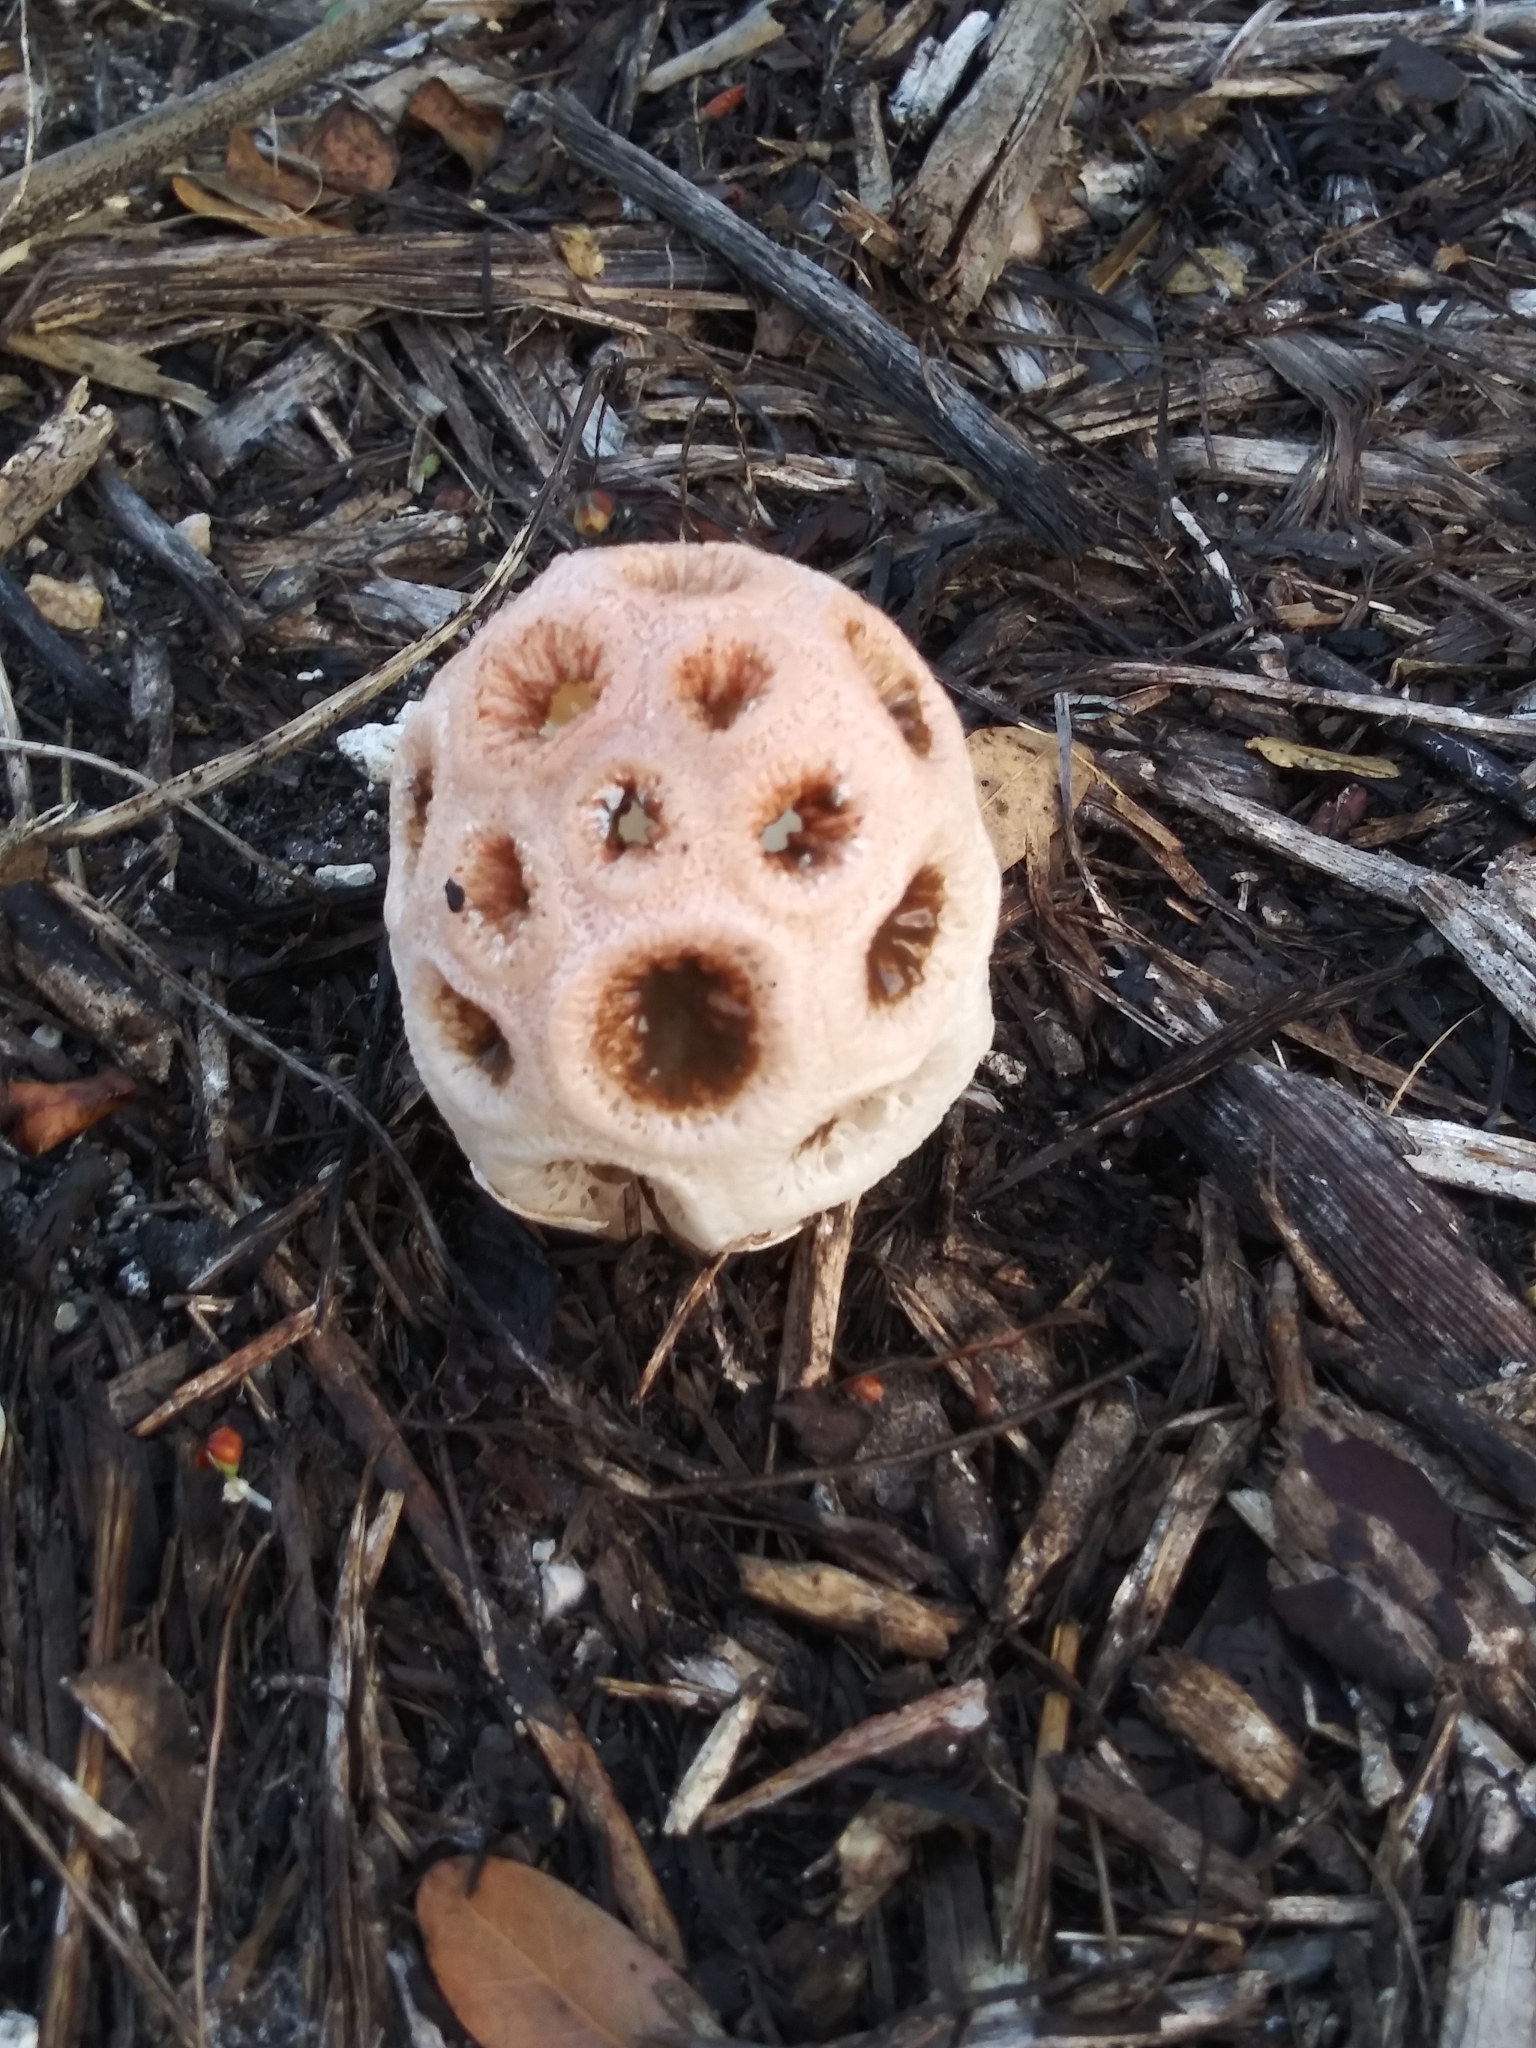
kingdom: Fungi
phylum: Basidiomycota
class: Agaricomycetes
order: Phallales
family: Phallaceae
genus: Clathrus
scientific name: Clathrus crispatus
